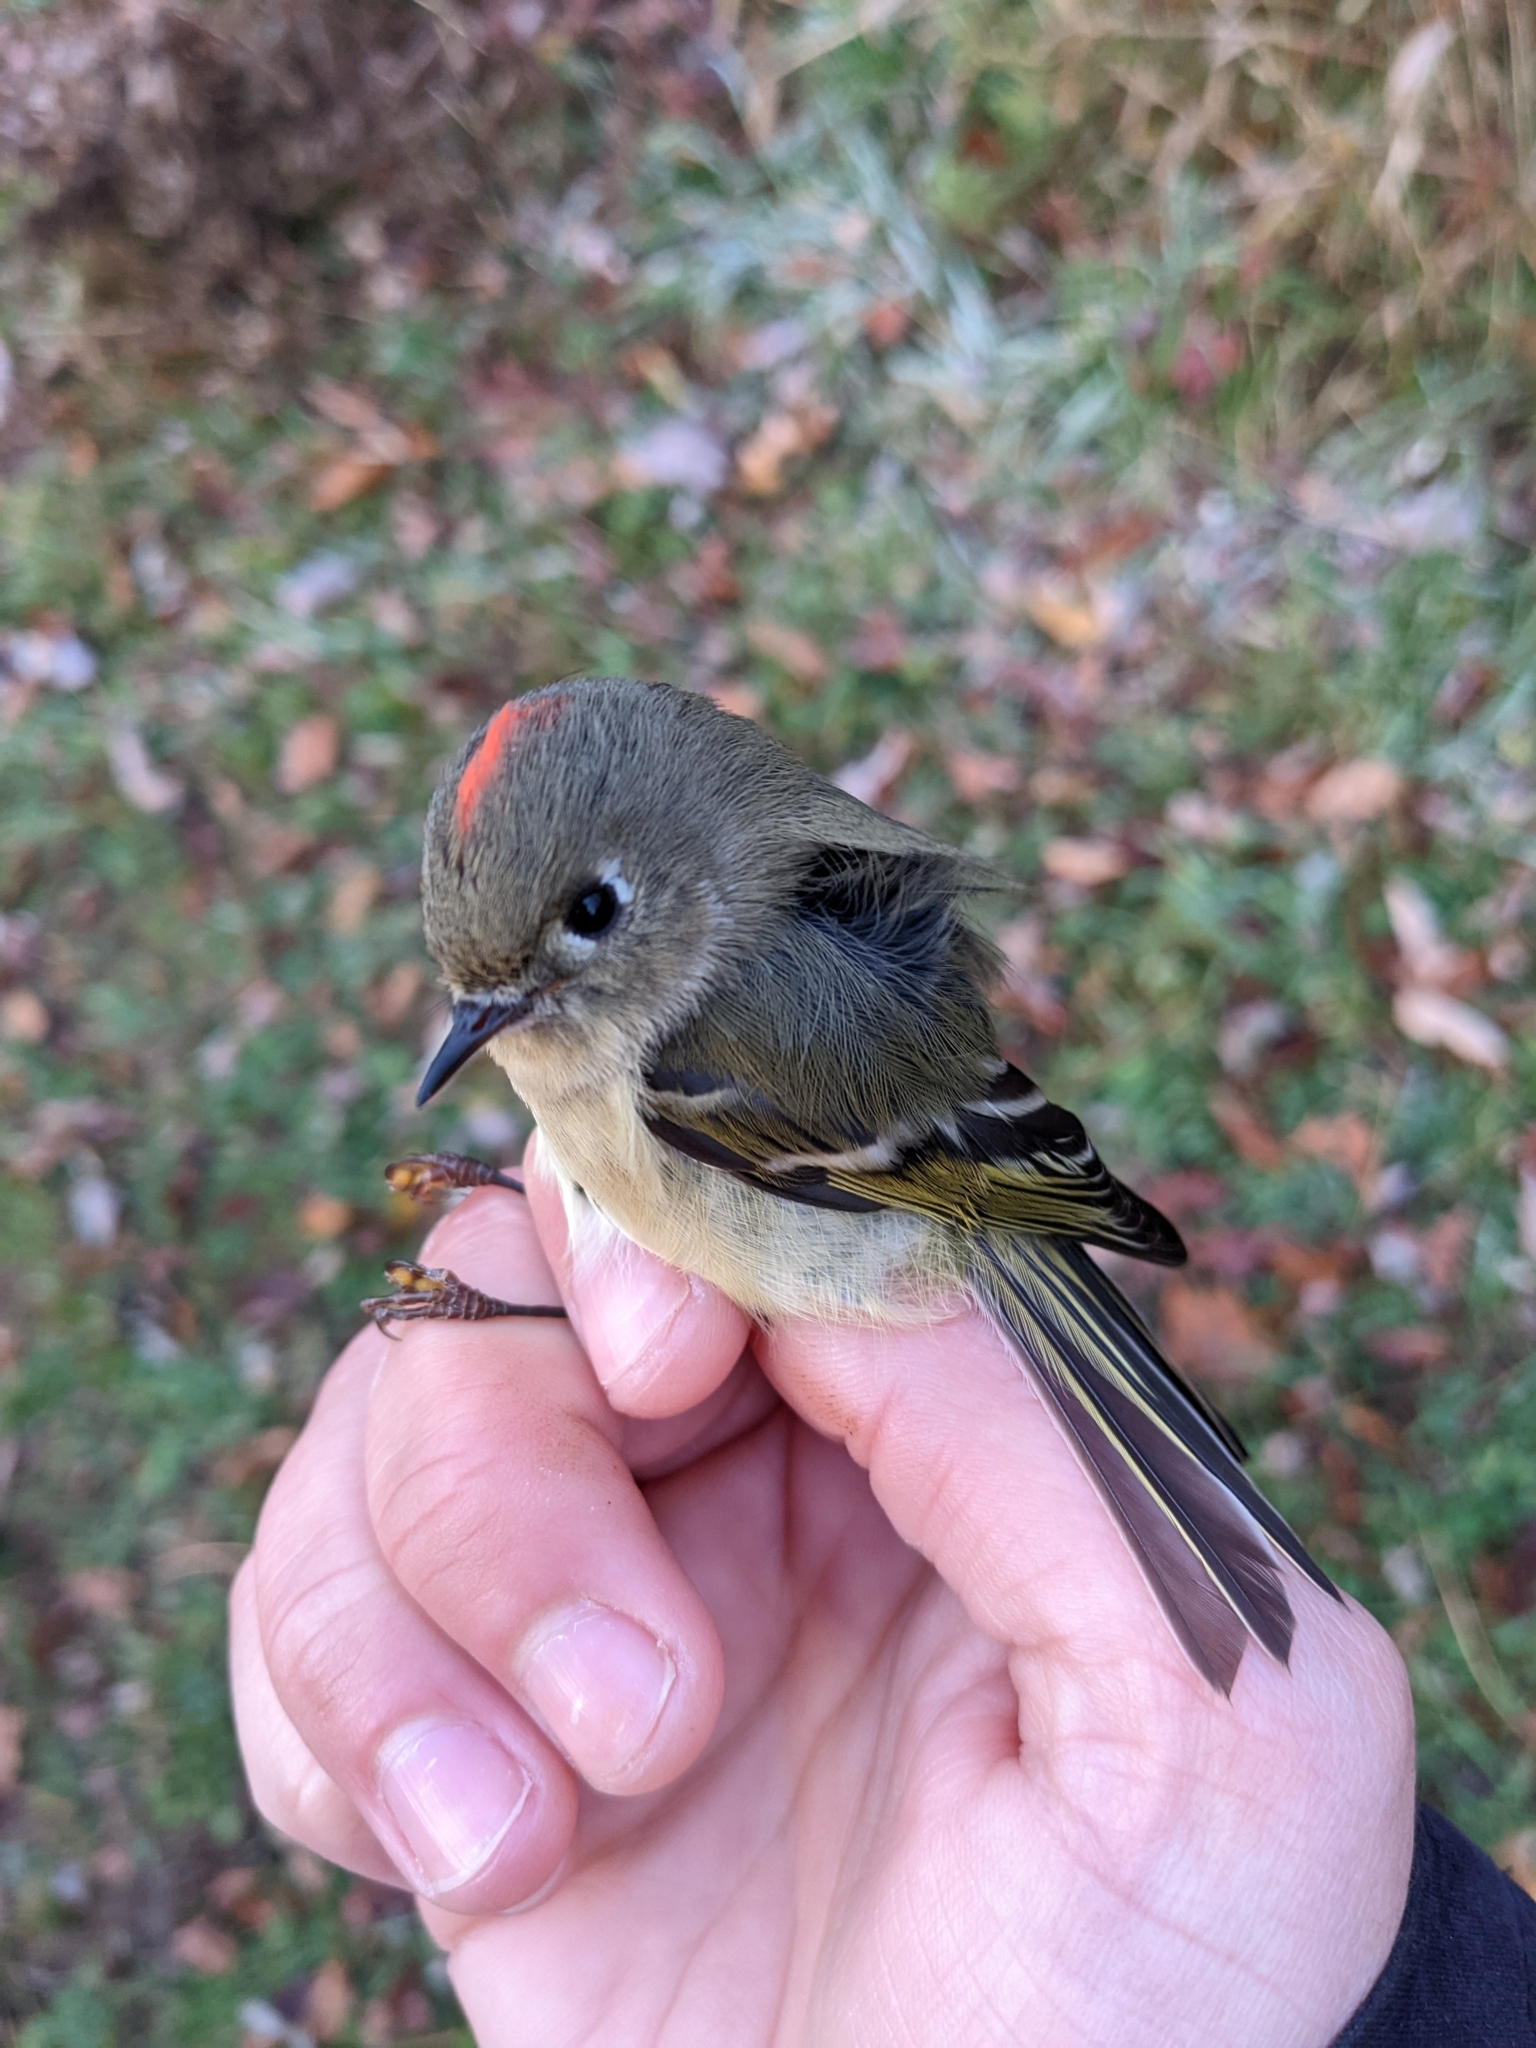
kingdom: Animalia
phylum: Chordata
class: Aves
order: Passeriformes
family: Regulidae
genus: Regulus
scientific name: Regulus calendula
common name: Ruby-crowned kinglet
